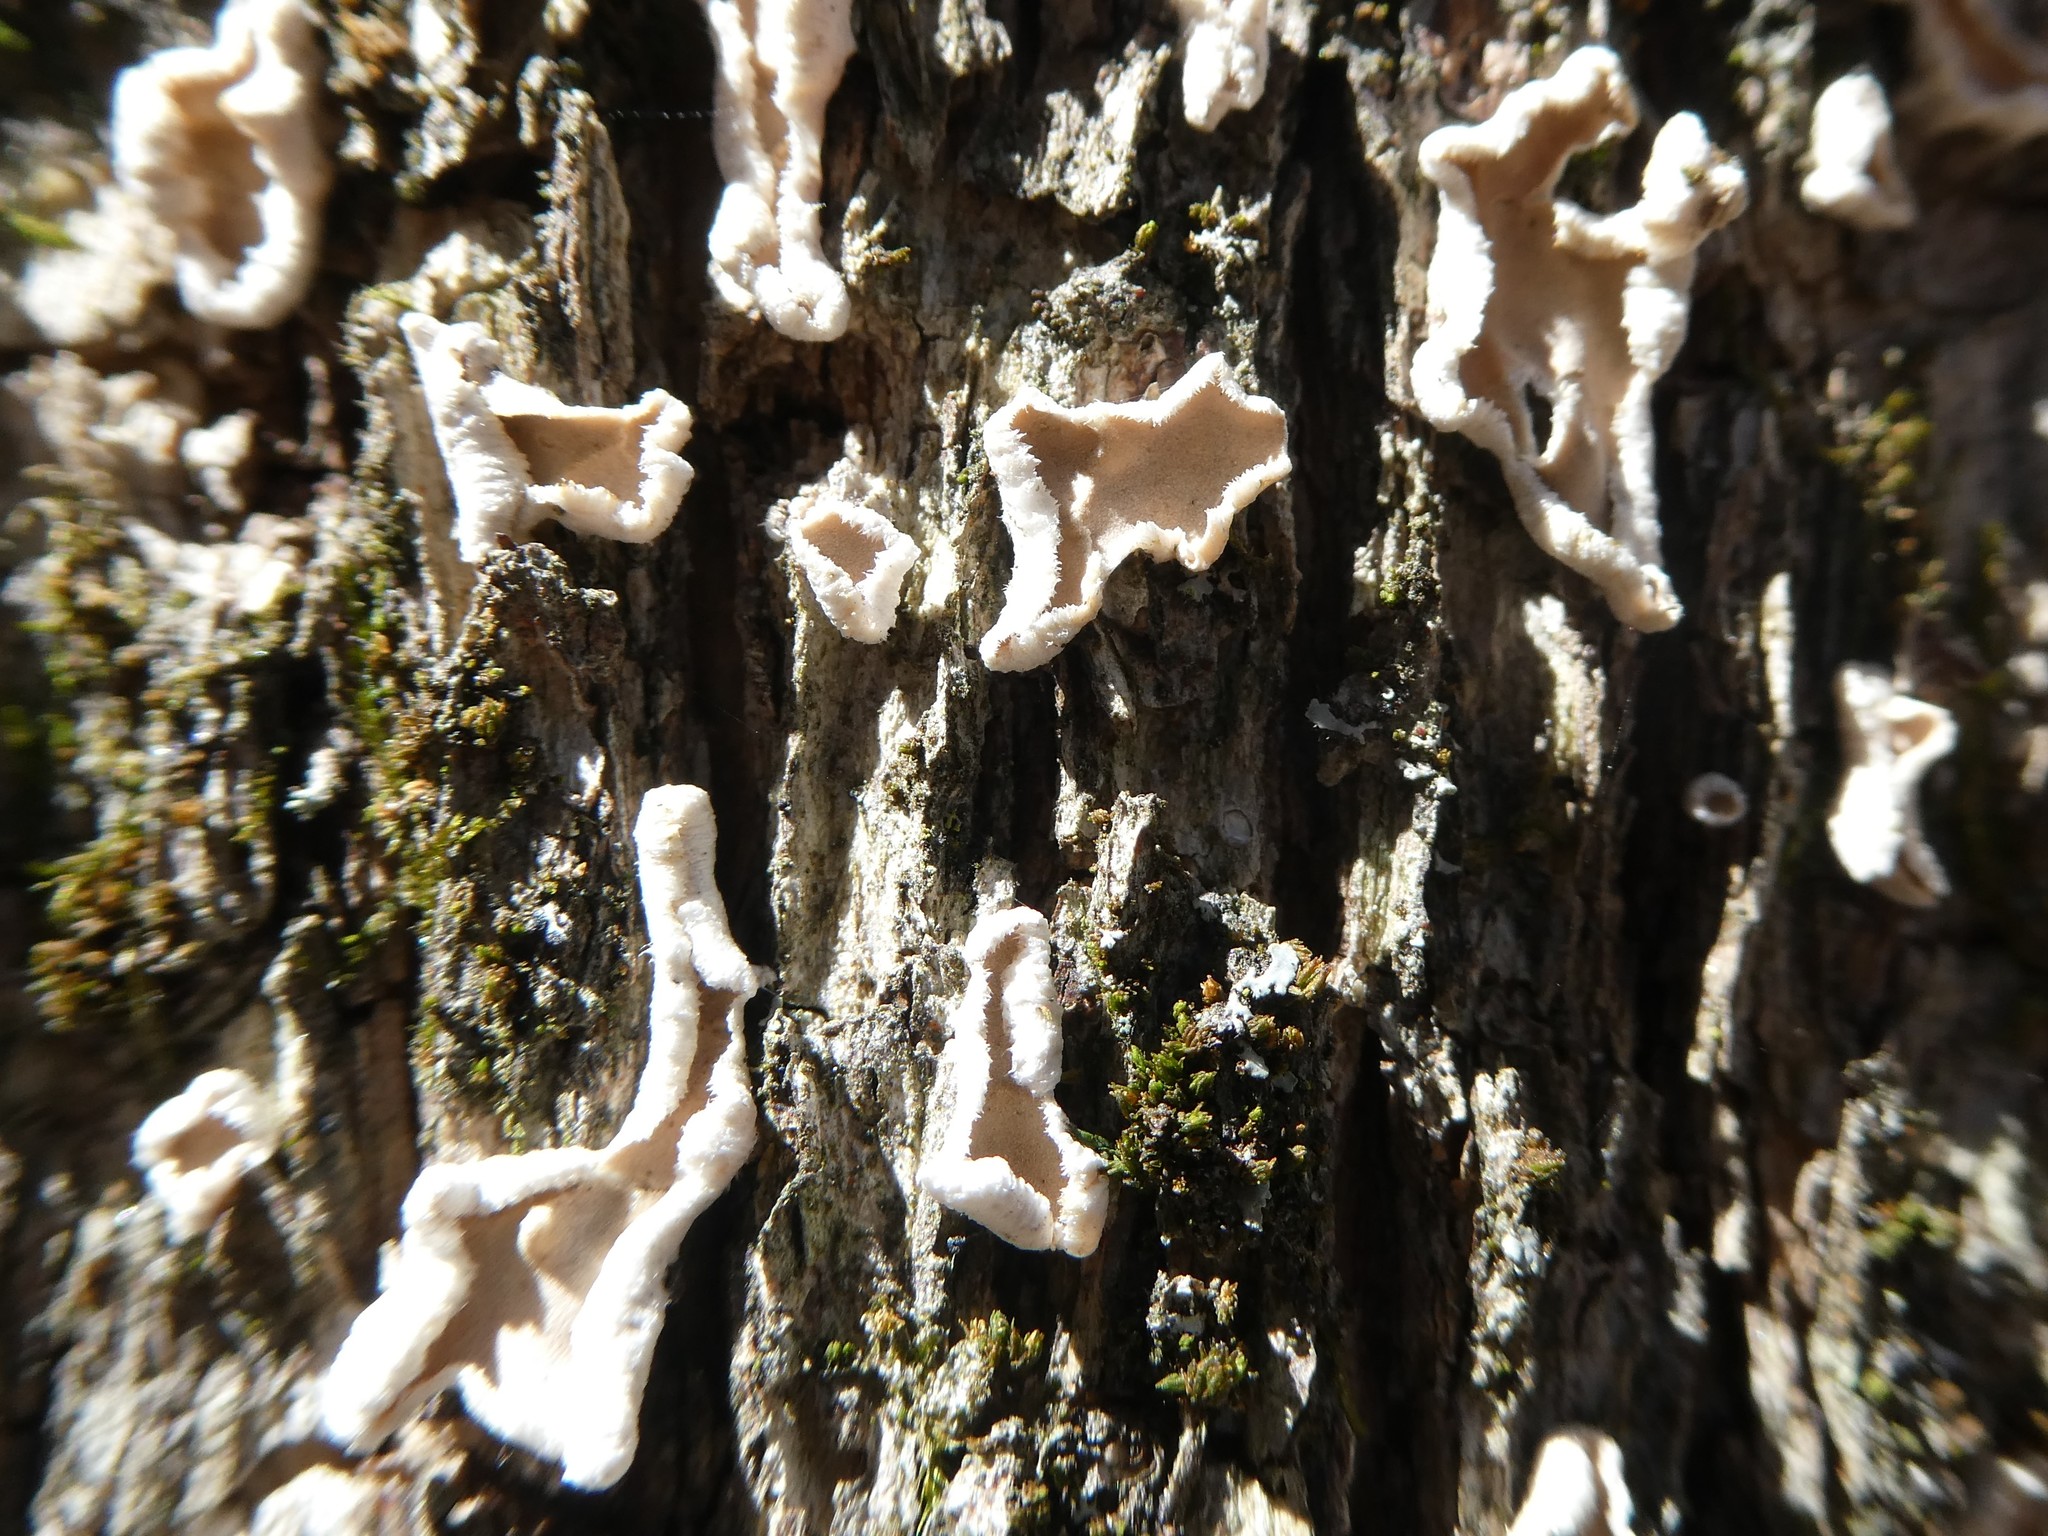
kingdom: Fungi
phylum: Basidiomycota
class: Agaricomycetes
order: Russulales
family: Stereaceae
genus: Acanthophysium
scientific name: Acanthophysium oakesii
